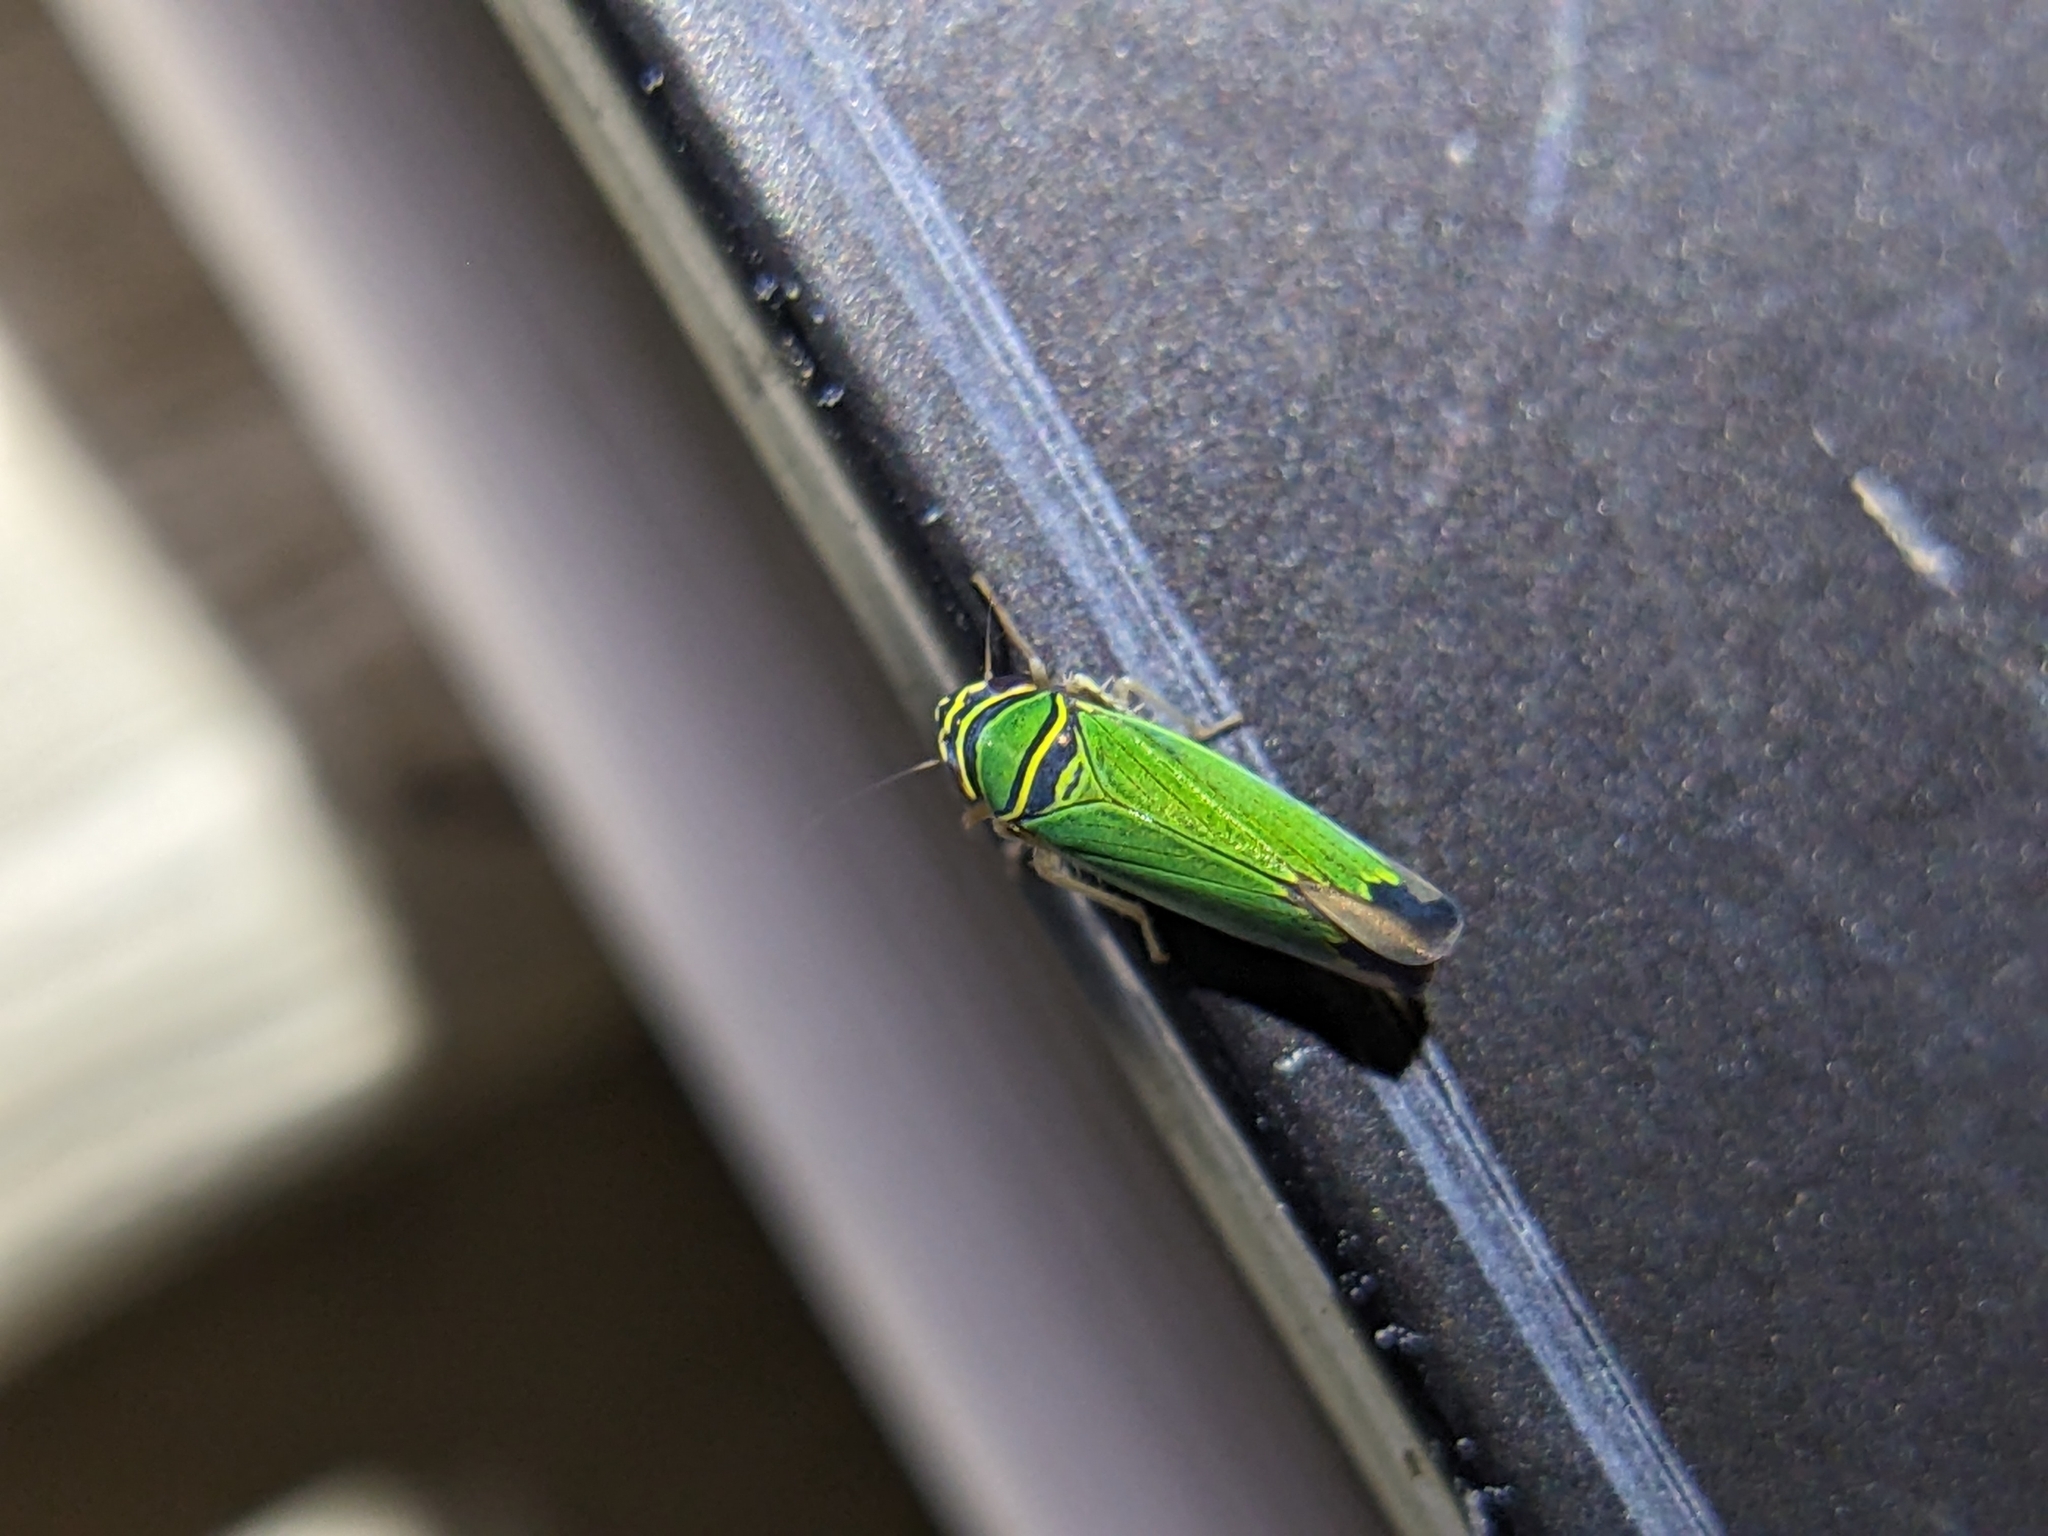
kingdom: Animalia
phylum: Arthropoda
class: Insecta
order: Hemiptera
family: Cicadellidae
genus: Tylozygus
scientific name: Tylozygus geometricus
